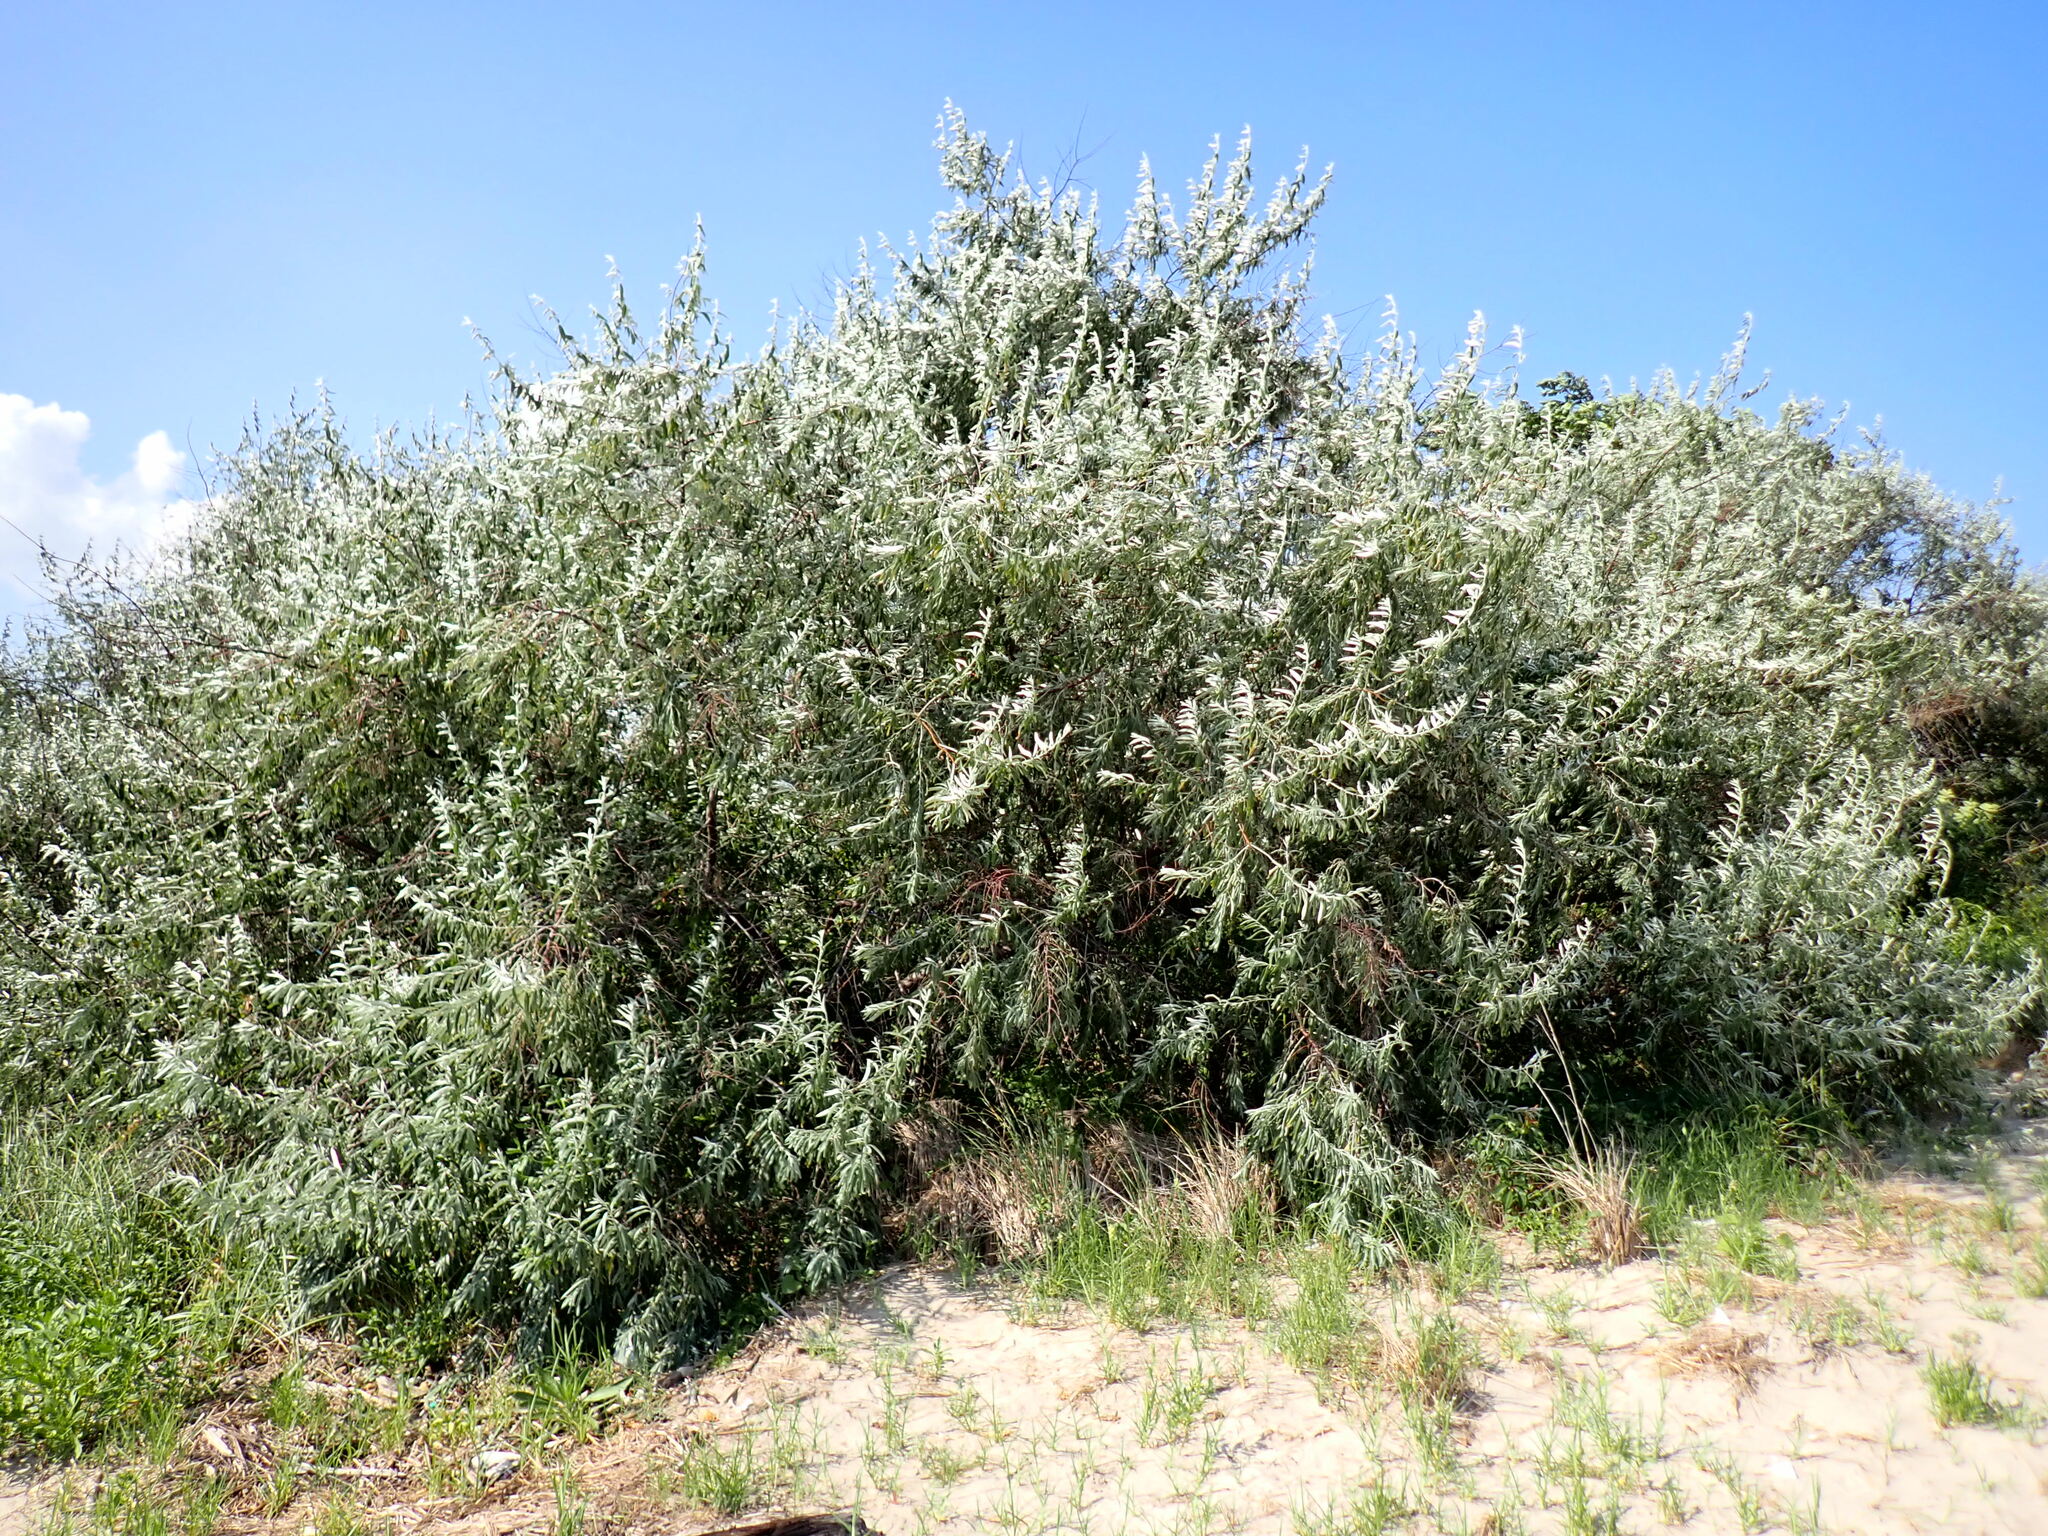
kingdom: Plantae
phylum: Tracheophyta
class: Magnoliopsida
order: Rosales
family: Elaeagnaceae
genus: Elaeagnus
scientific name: Elaeagnus angustifolia
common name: Russian olive
